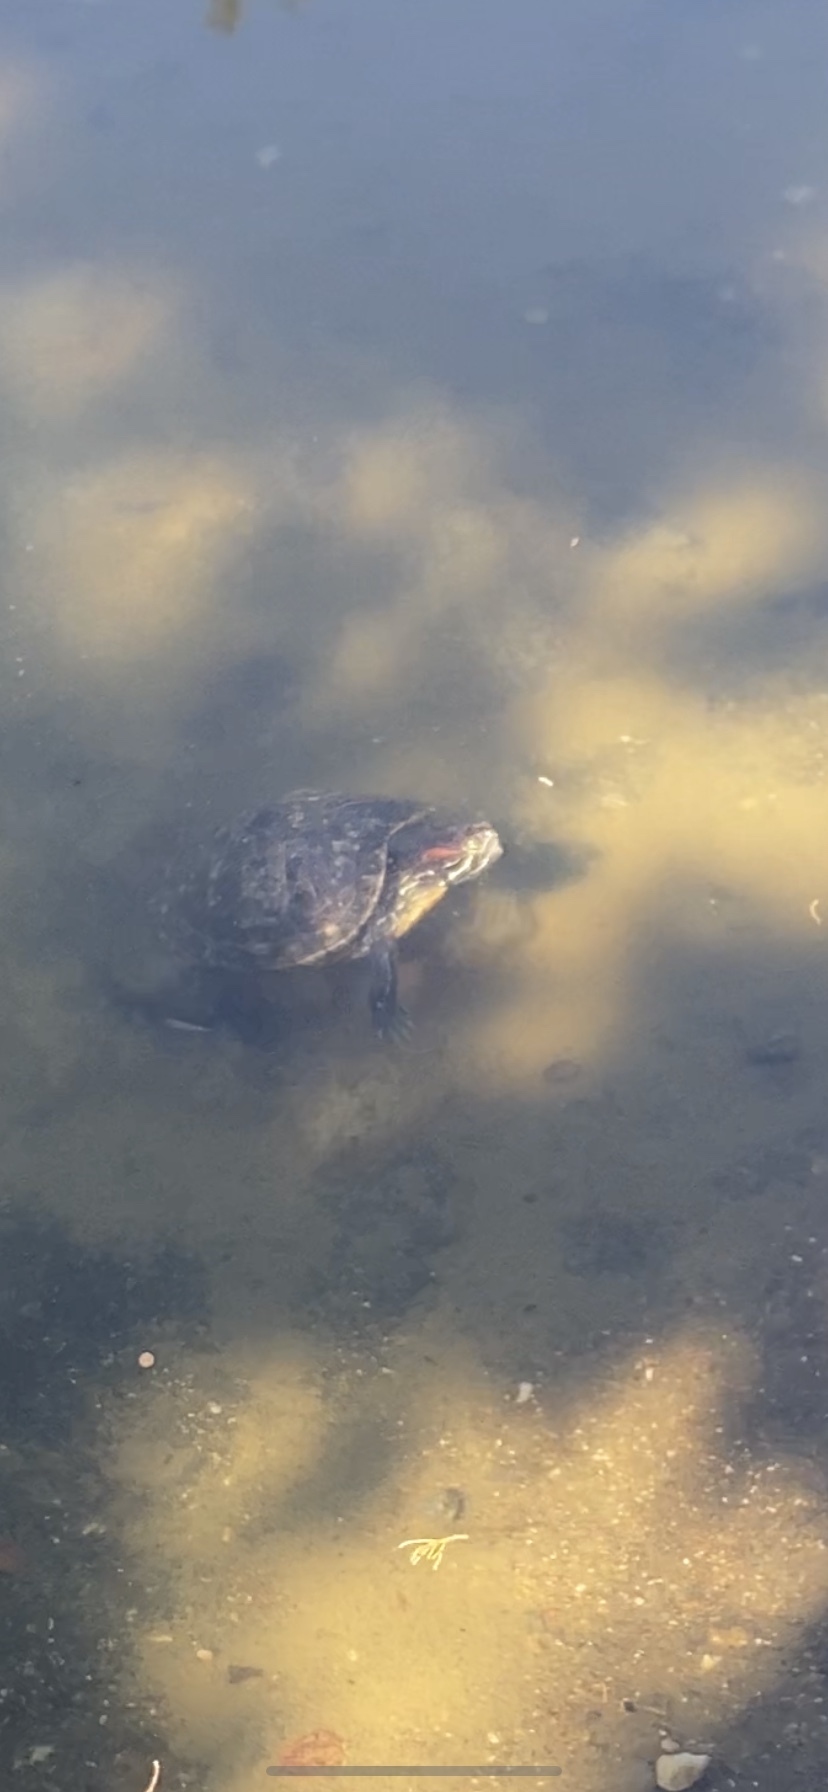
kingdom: Animalia
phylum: Chordata
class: Testudines
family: Emydidae
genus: Trachemys
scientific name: Trachemys scripta
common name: Slider
